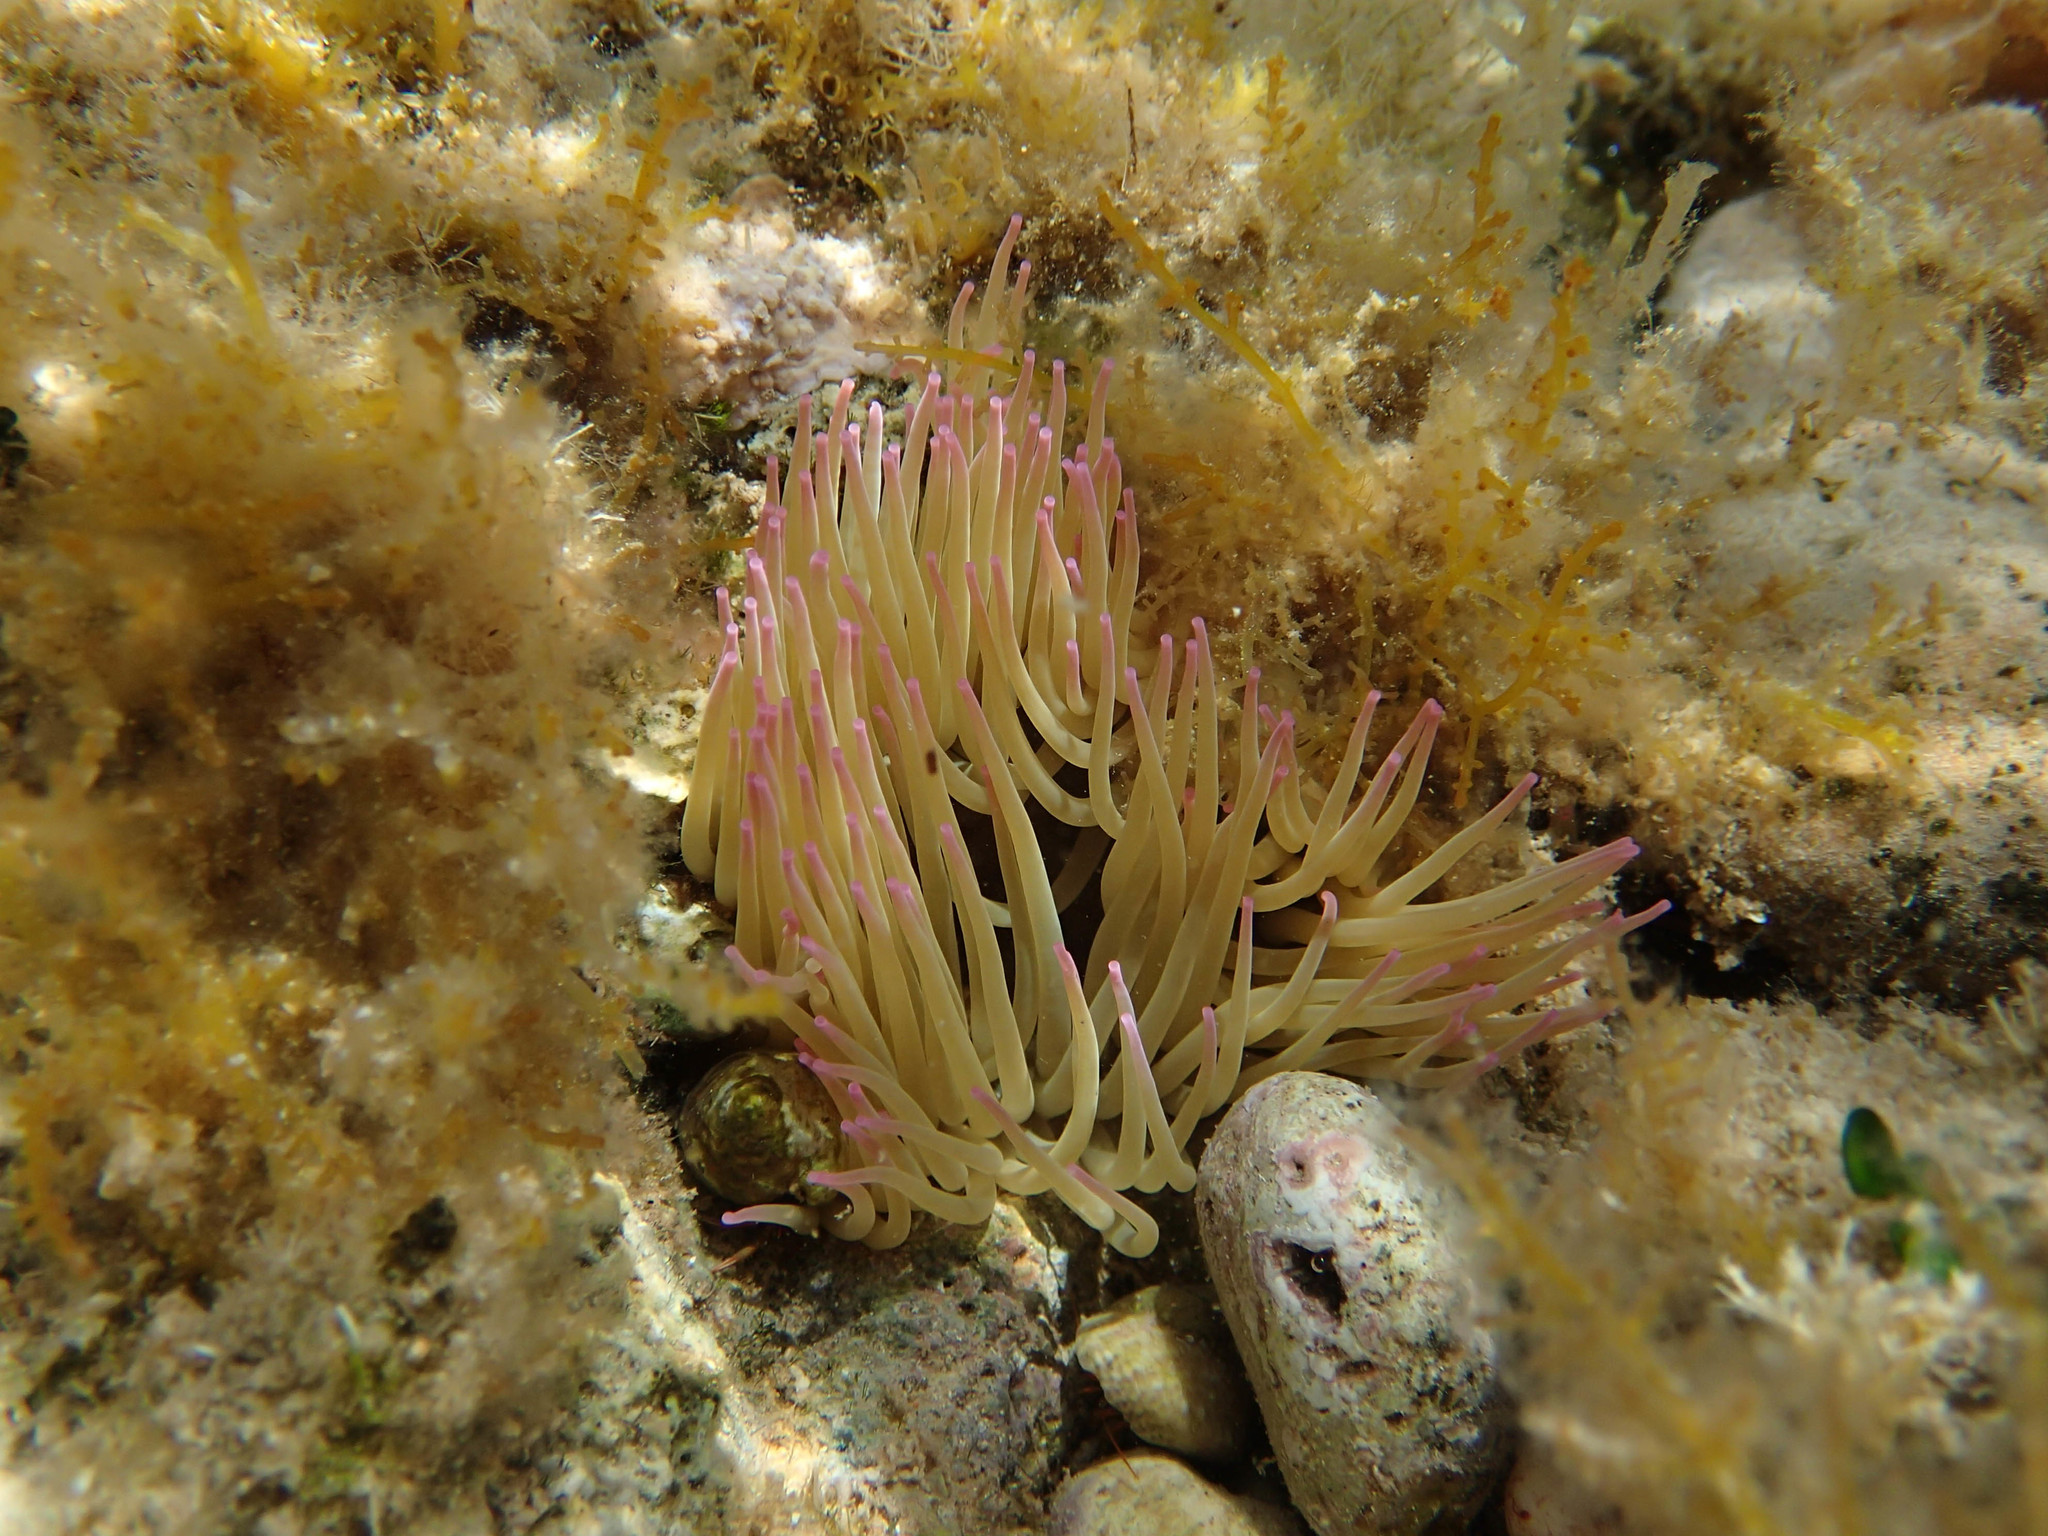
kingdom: Animalia
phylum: Cnidaria
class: Anthozoa
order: Actiniaria
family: Actiniidae
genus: Anemonia
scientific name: Anemonia viridis
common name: Snakelocks anemone
